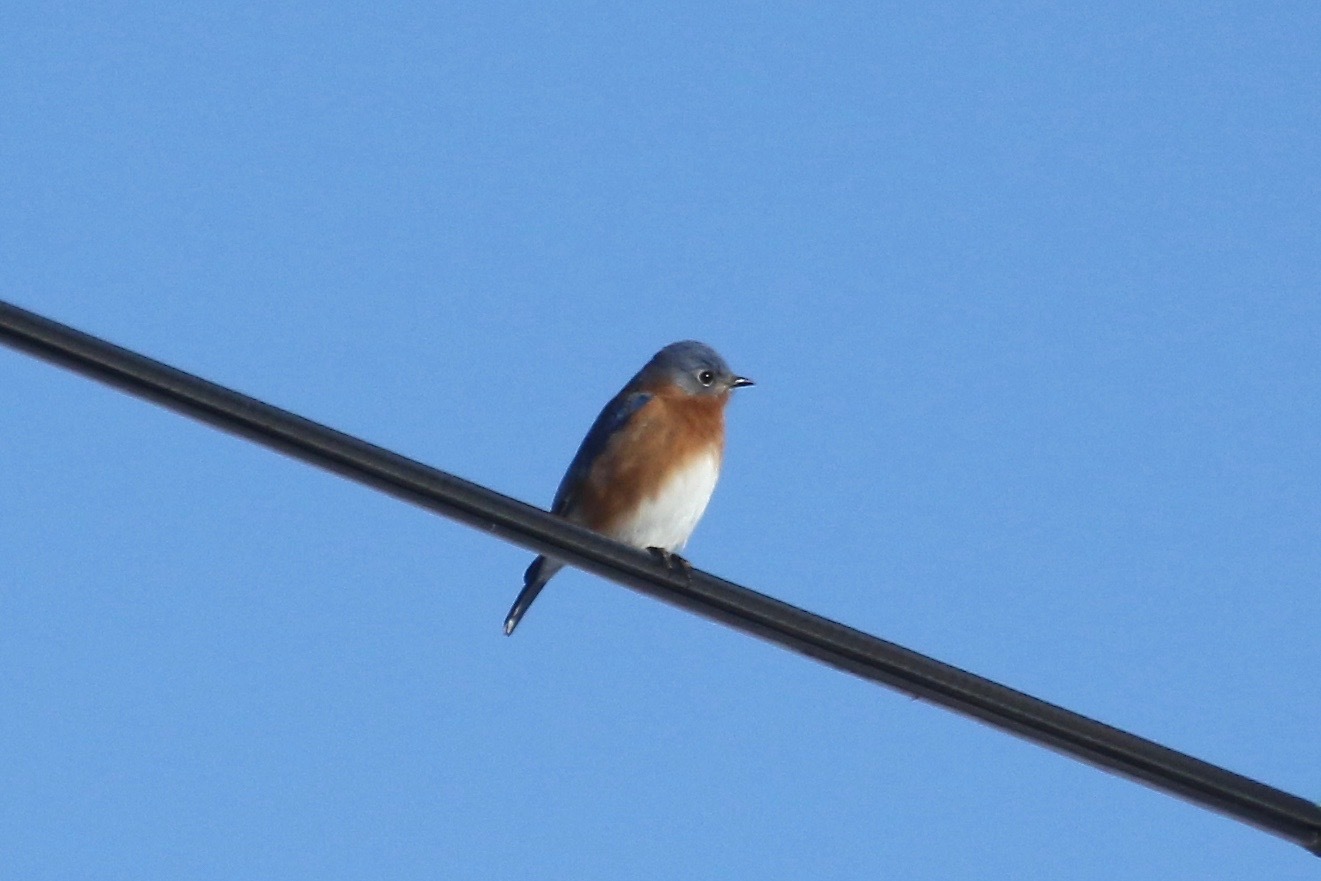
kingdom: Animalia
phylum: Chordata
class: Aves
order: Passeriformes
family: Turdidae
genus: Sialia
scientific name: Sialia sialis
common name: Eastern bluebird
